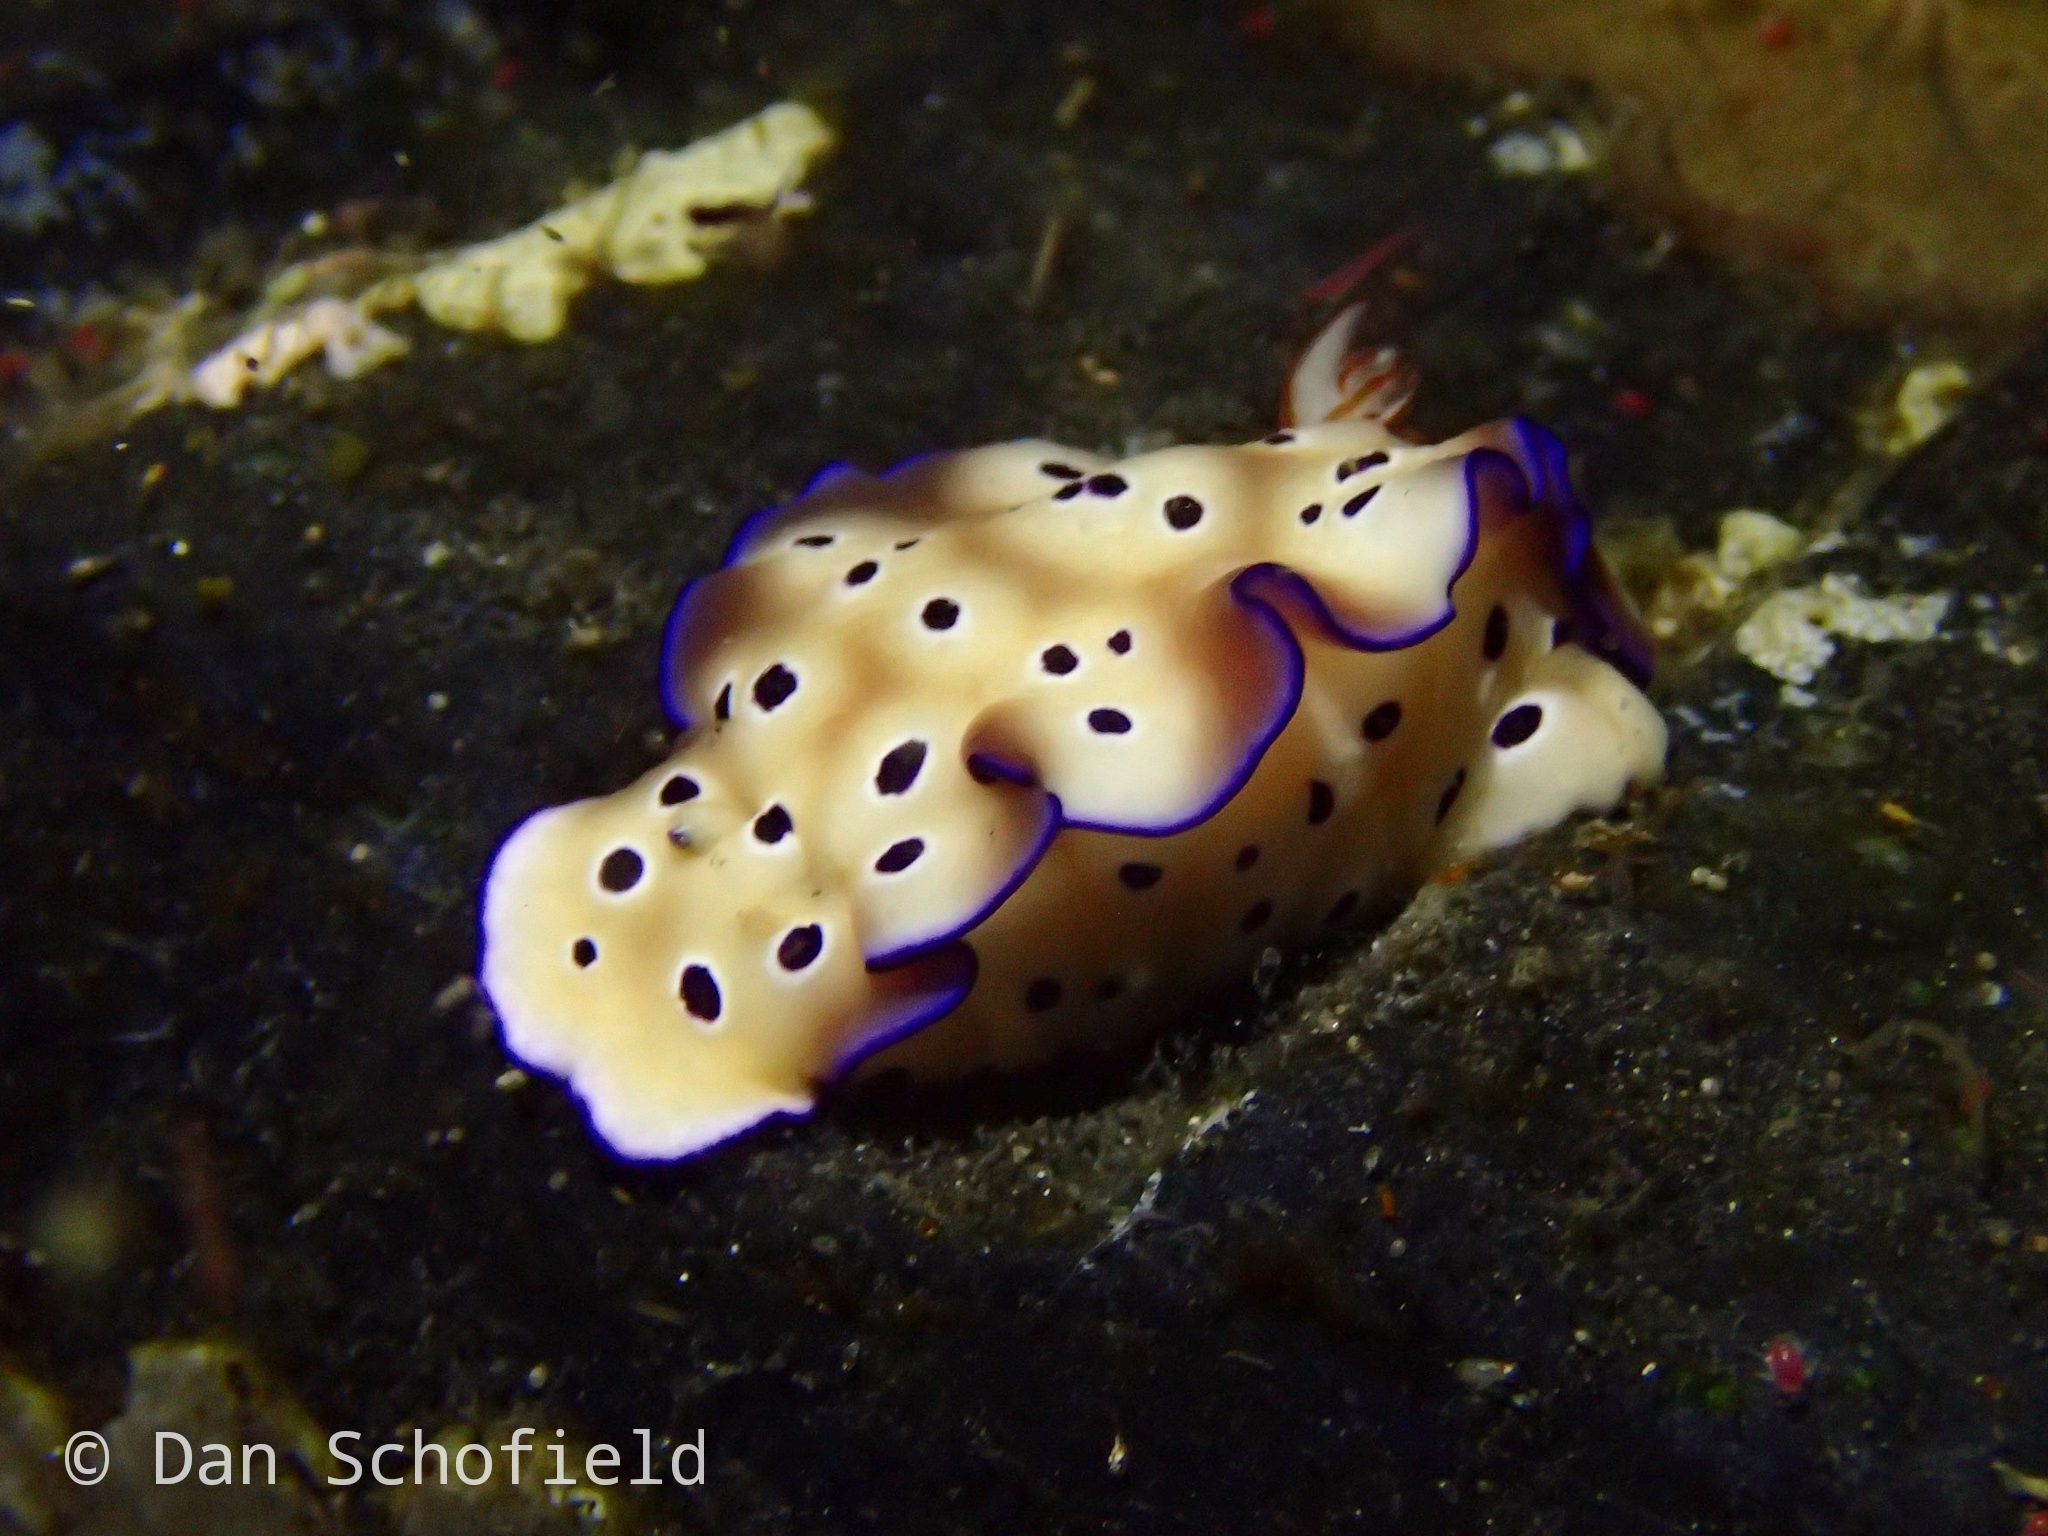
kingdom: Animalia
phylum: Mollusca
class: Gastropoda
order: Nudibranchia
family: Chromodorididae
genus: Hypselodoris
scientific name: Hypselodoris tryoni
